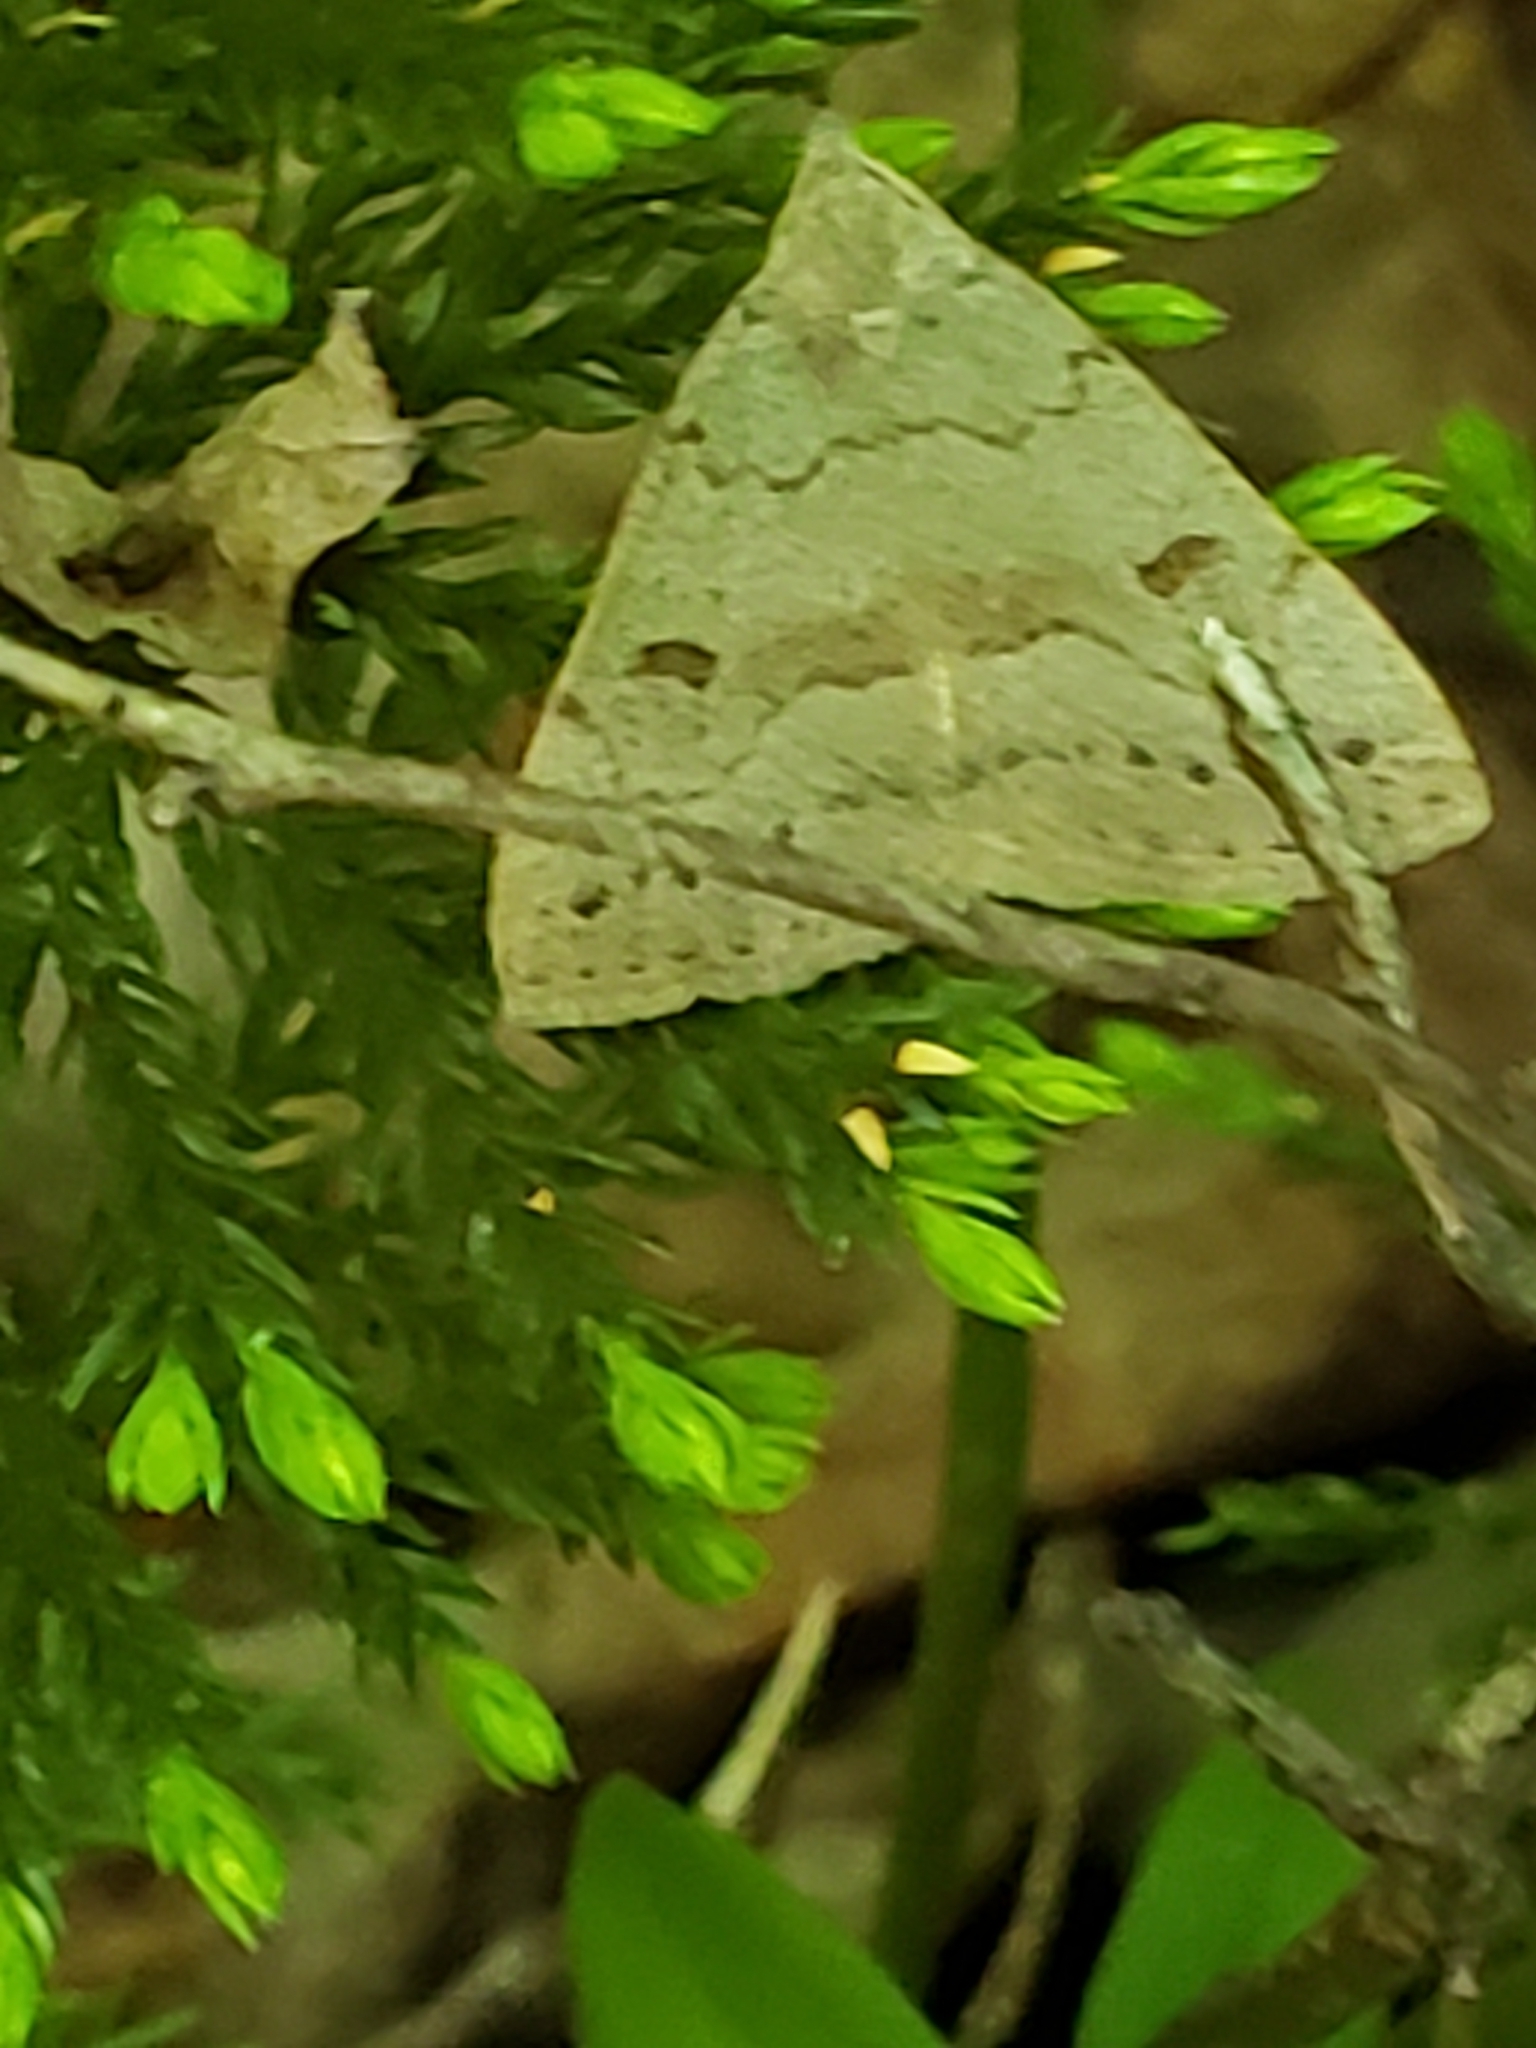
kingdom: Animalia
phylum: Arthropoda
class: Insecta
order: Lepidoptera
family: Erebidae
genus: Macrochilo
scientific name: Macrochilo morbidalis
